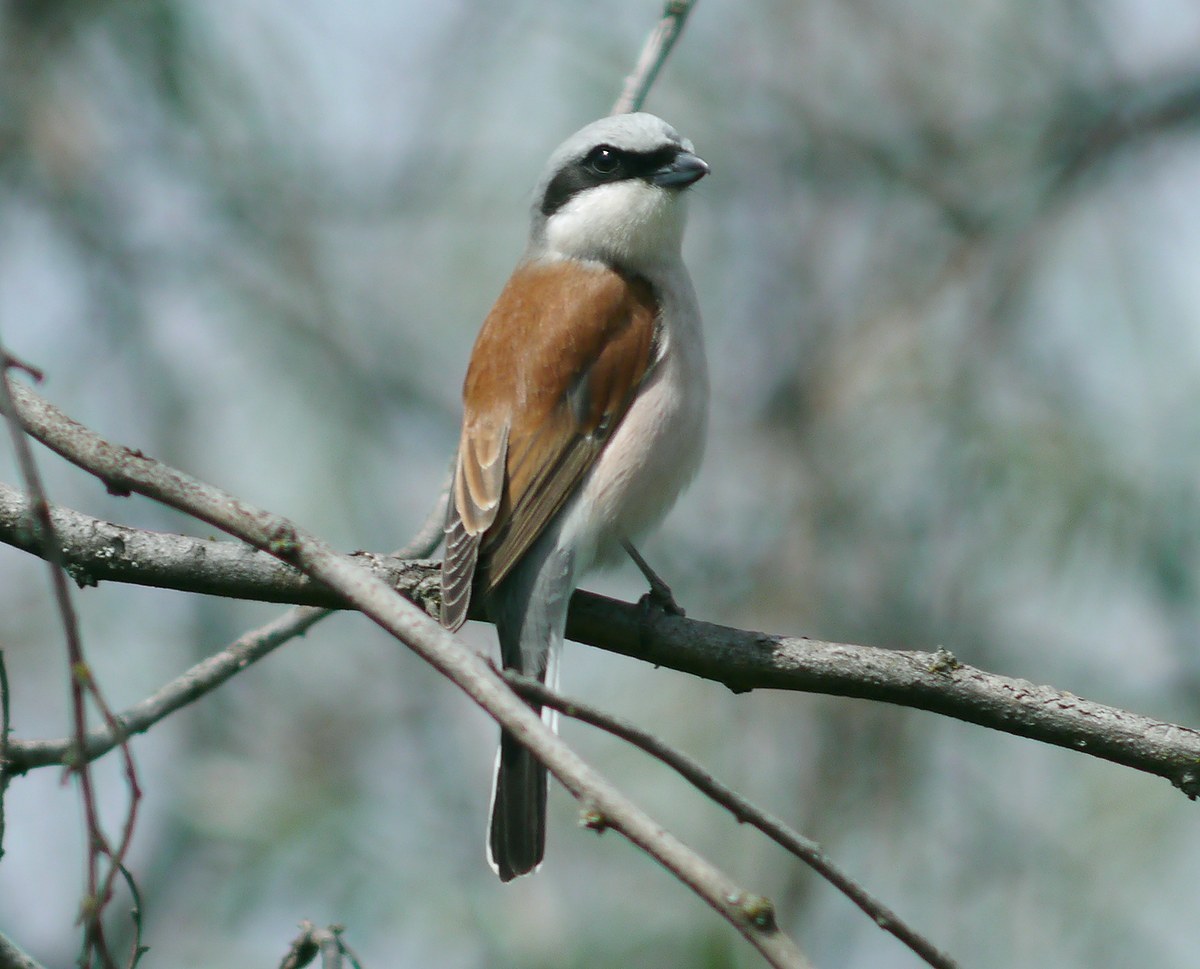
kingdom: Animalia
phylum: Chordata
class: Aves
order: Passeriformes
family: Laniidae
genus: Lanius
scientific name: Lanius collurio
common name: Red-backed shrike
